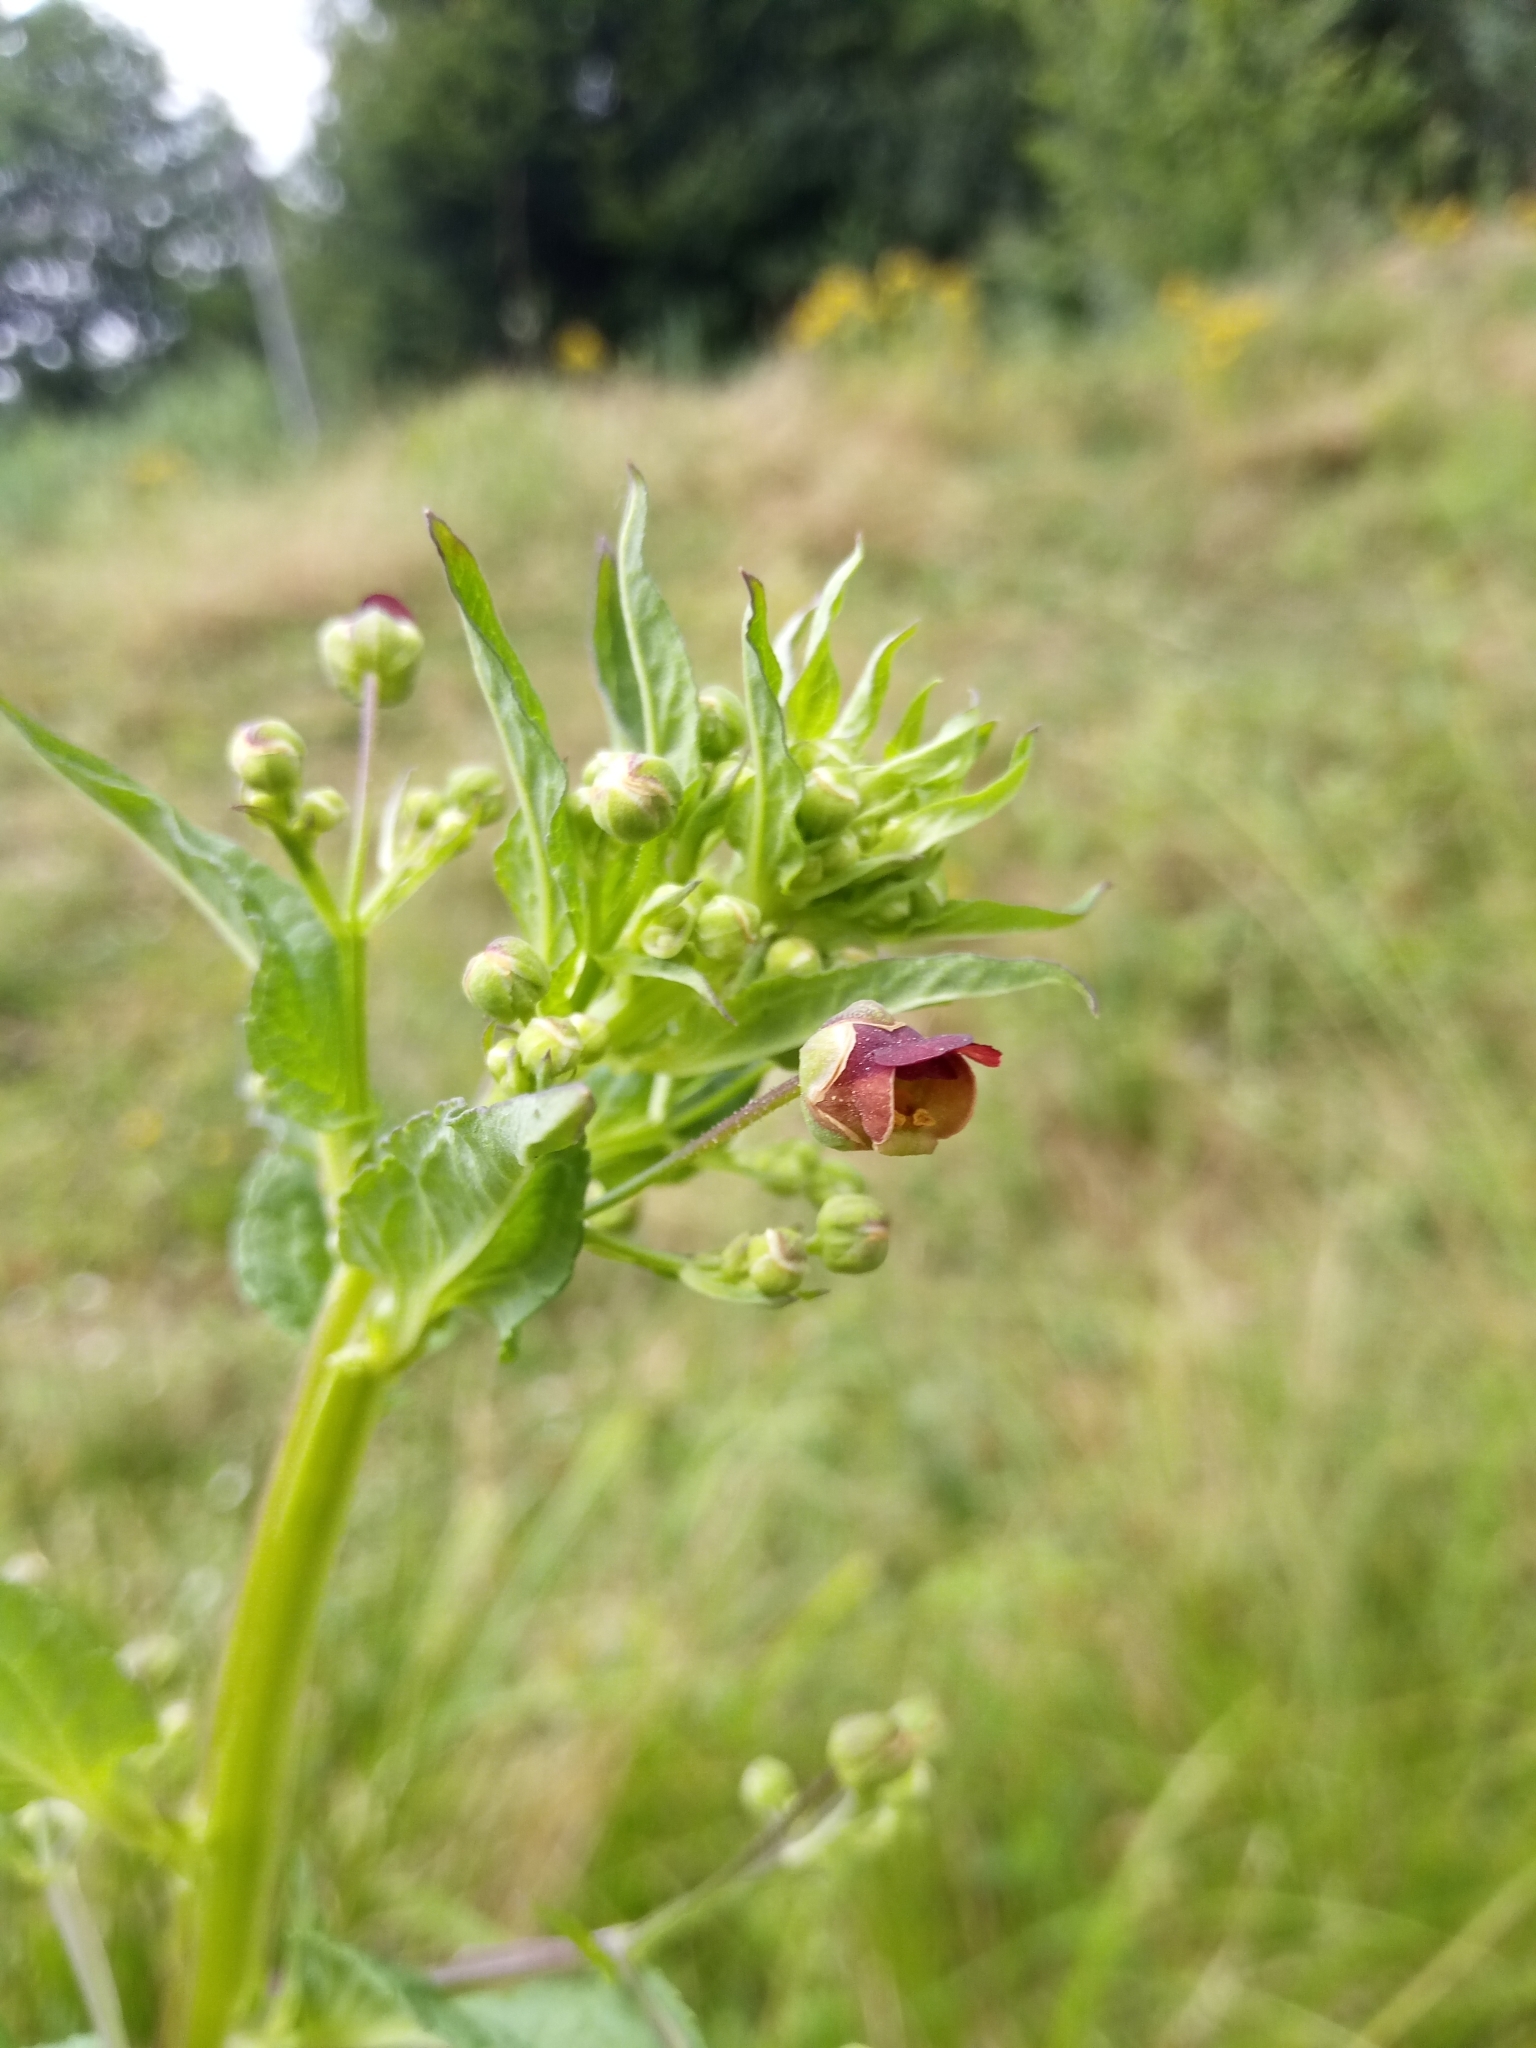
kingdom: Plantae
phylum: Tracheophyta
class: Magnoliopsida
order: Lamiales
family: Scrophulariaceae
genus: Scrophularia
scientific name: Scrophularia umbrosa
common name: Green figwort
